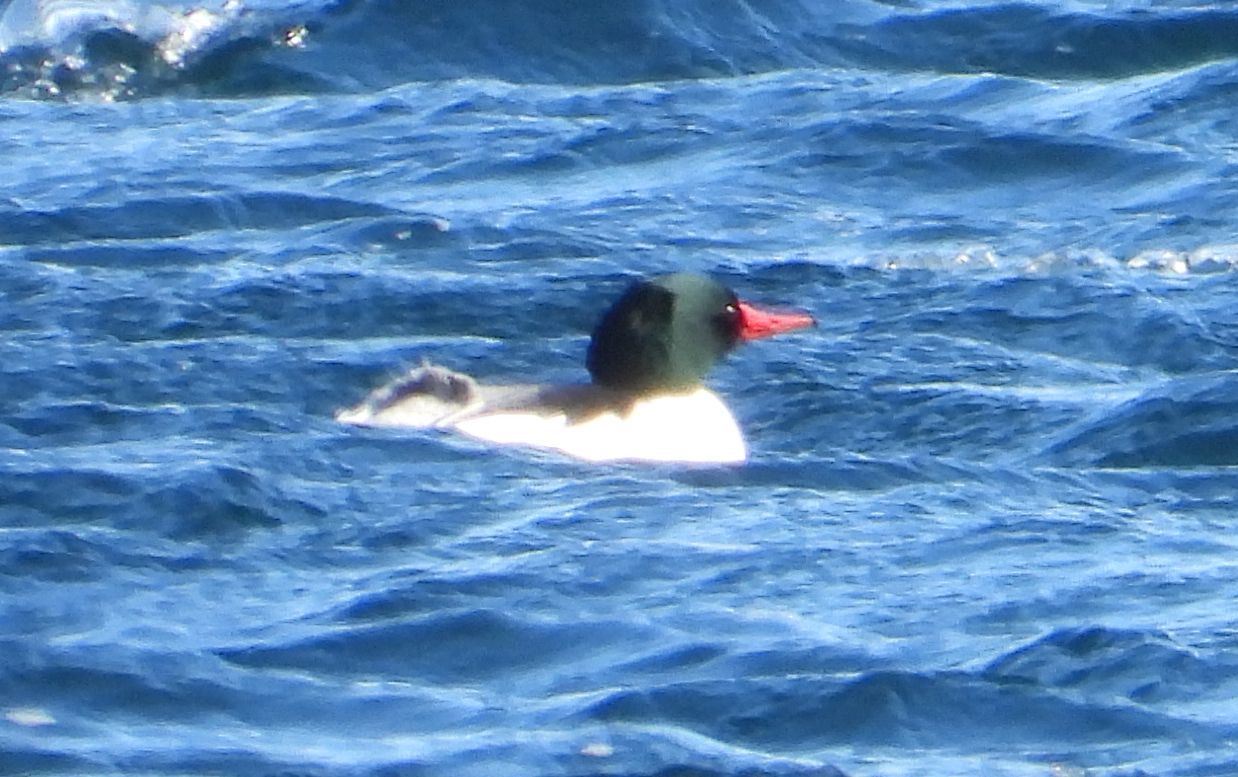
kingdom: Animalia
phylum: Chordata
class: Aves
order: Anseriformes
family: Anatidae
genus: Mergus
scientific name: Mergus merganser
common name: Common merganser
